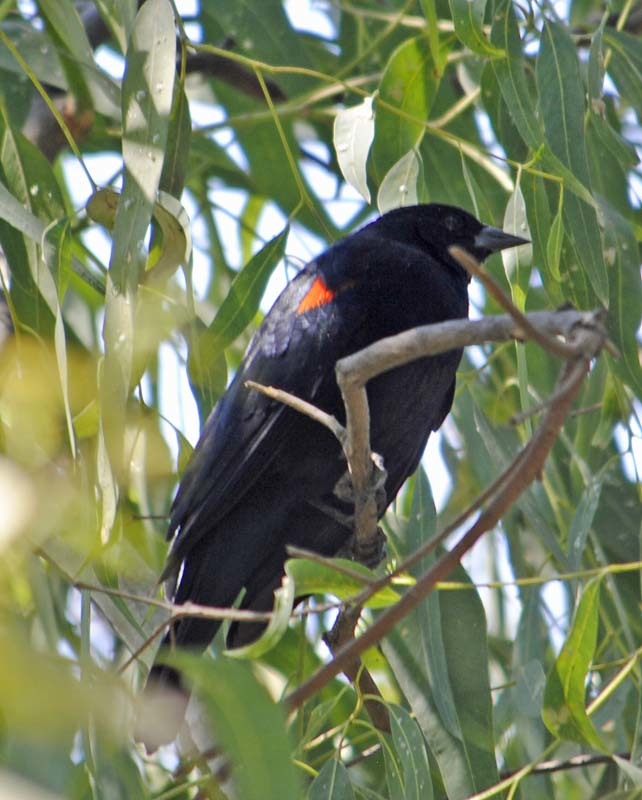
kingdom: Animalia
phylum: Chordata
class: Aves
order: Passeriformes
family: Icteridae
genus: Agelaius
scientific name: Agelaius phoeniceus
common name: Red-winged blackbird
